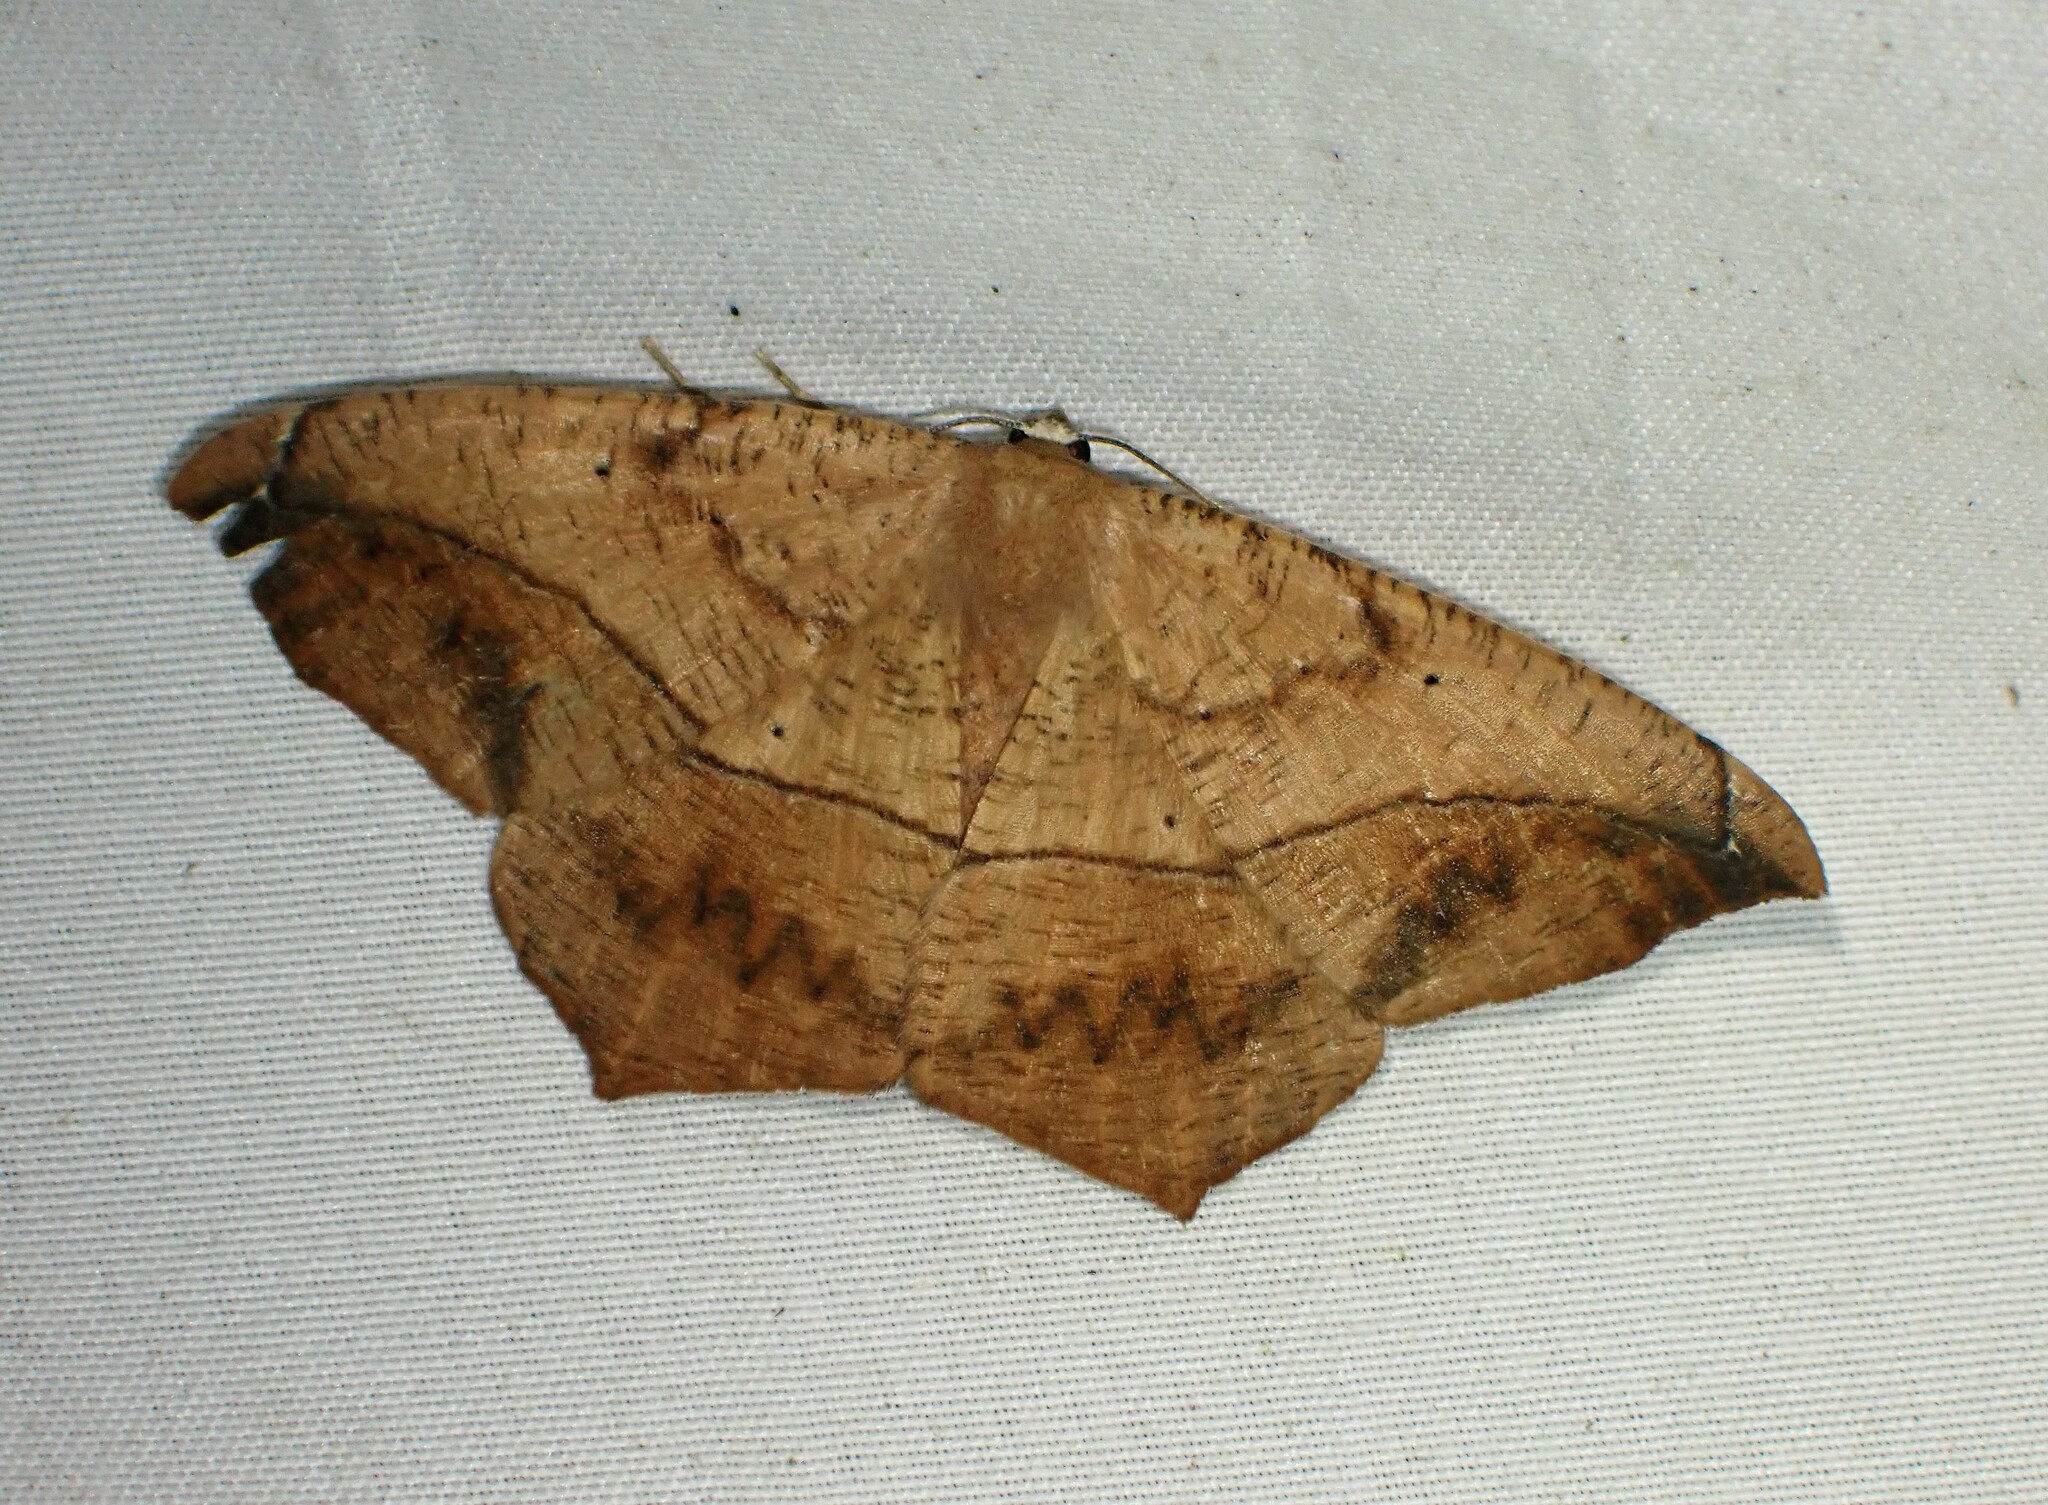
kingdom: Animalia
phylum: Arthropoda
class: Insecta
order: Lepidoptera
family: Geometridae
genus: Prochoerodes
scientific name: Prochoerodes lineola
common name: Large maple spanworm
